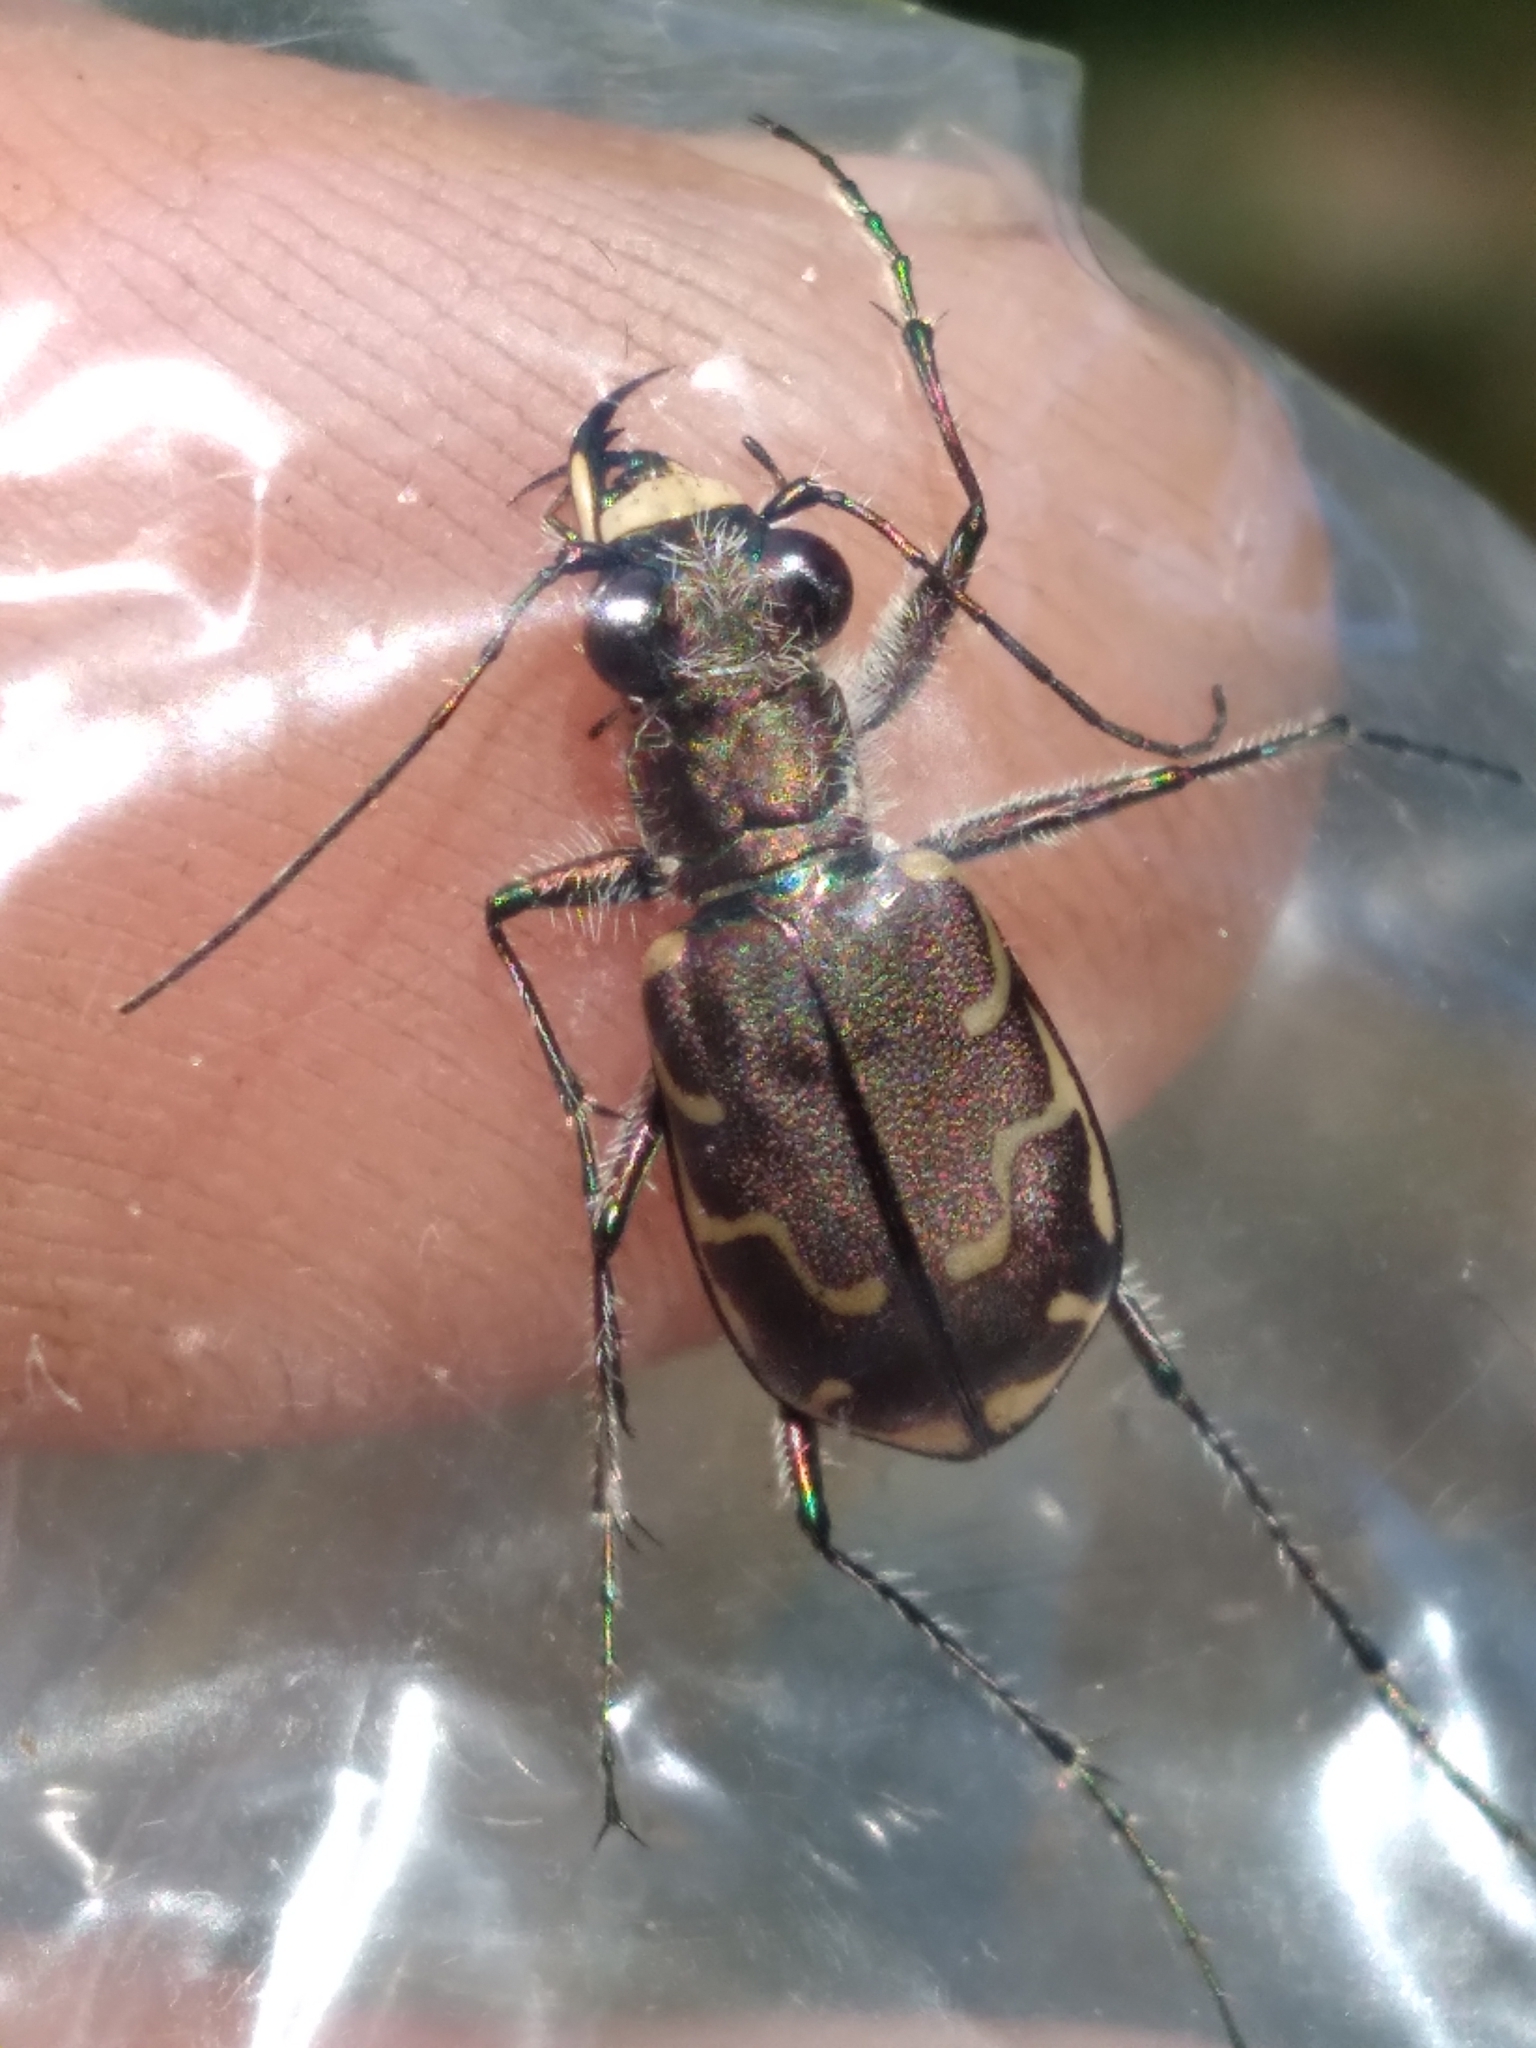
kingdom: Animalia
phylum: Arthropoda
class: Insecta
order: Coleoptera
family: Carabidae
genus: Cicindela
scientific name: Cicindela repanda
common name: Bronzed tiger beetle
